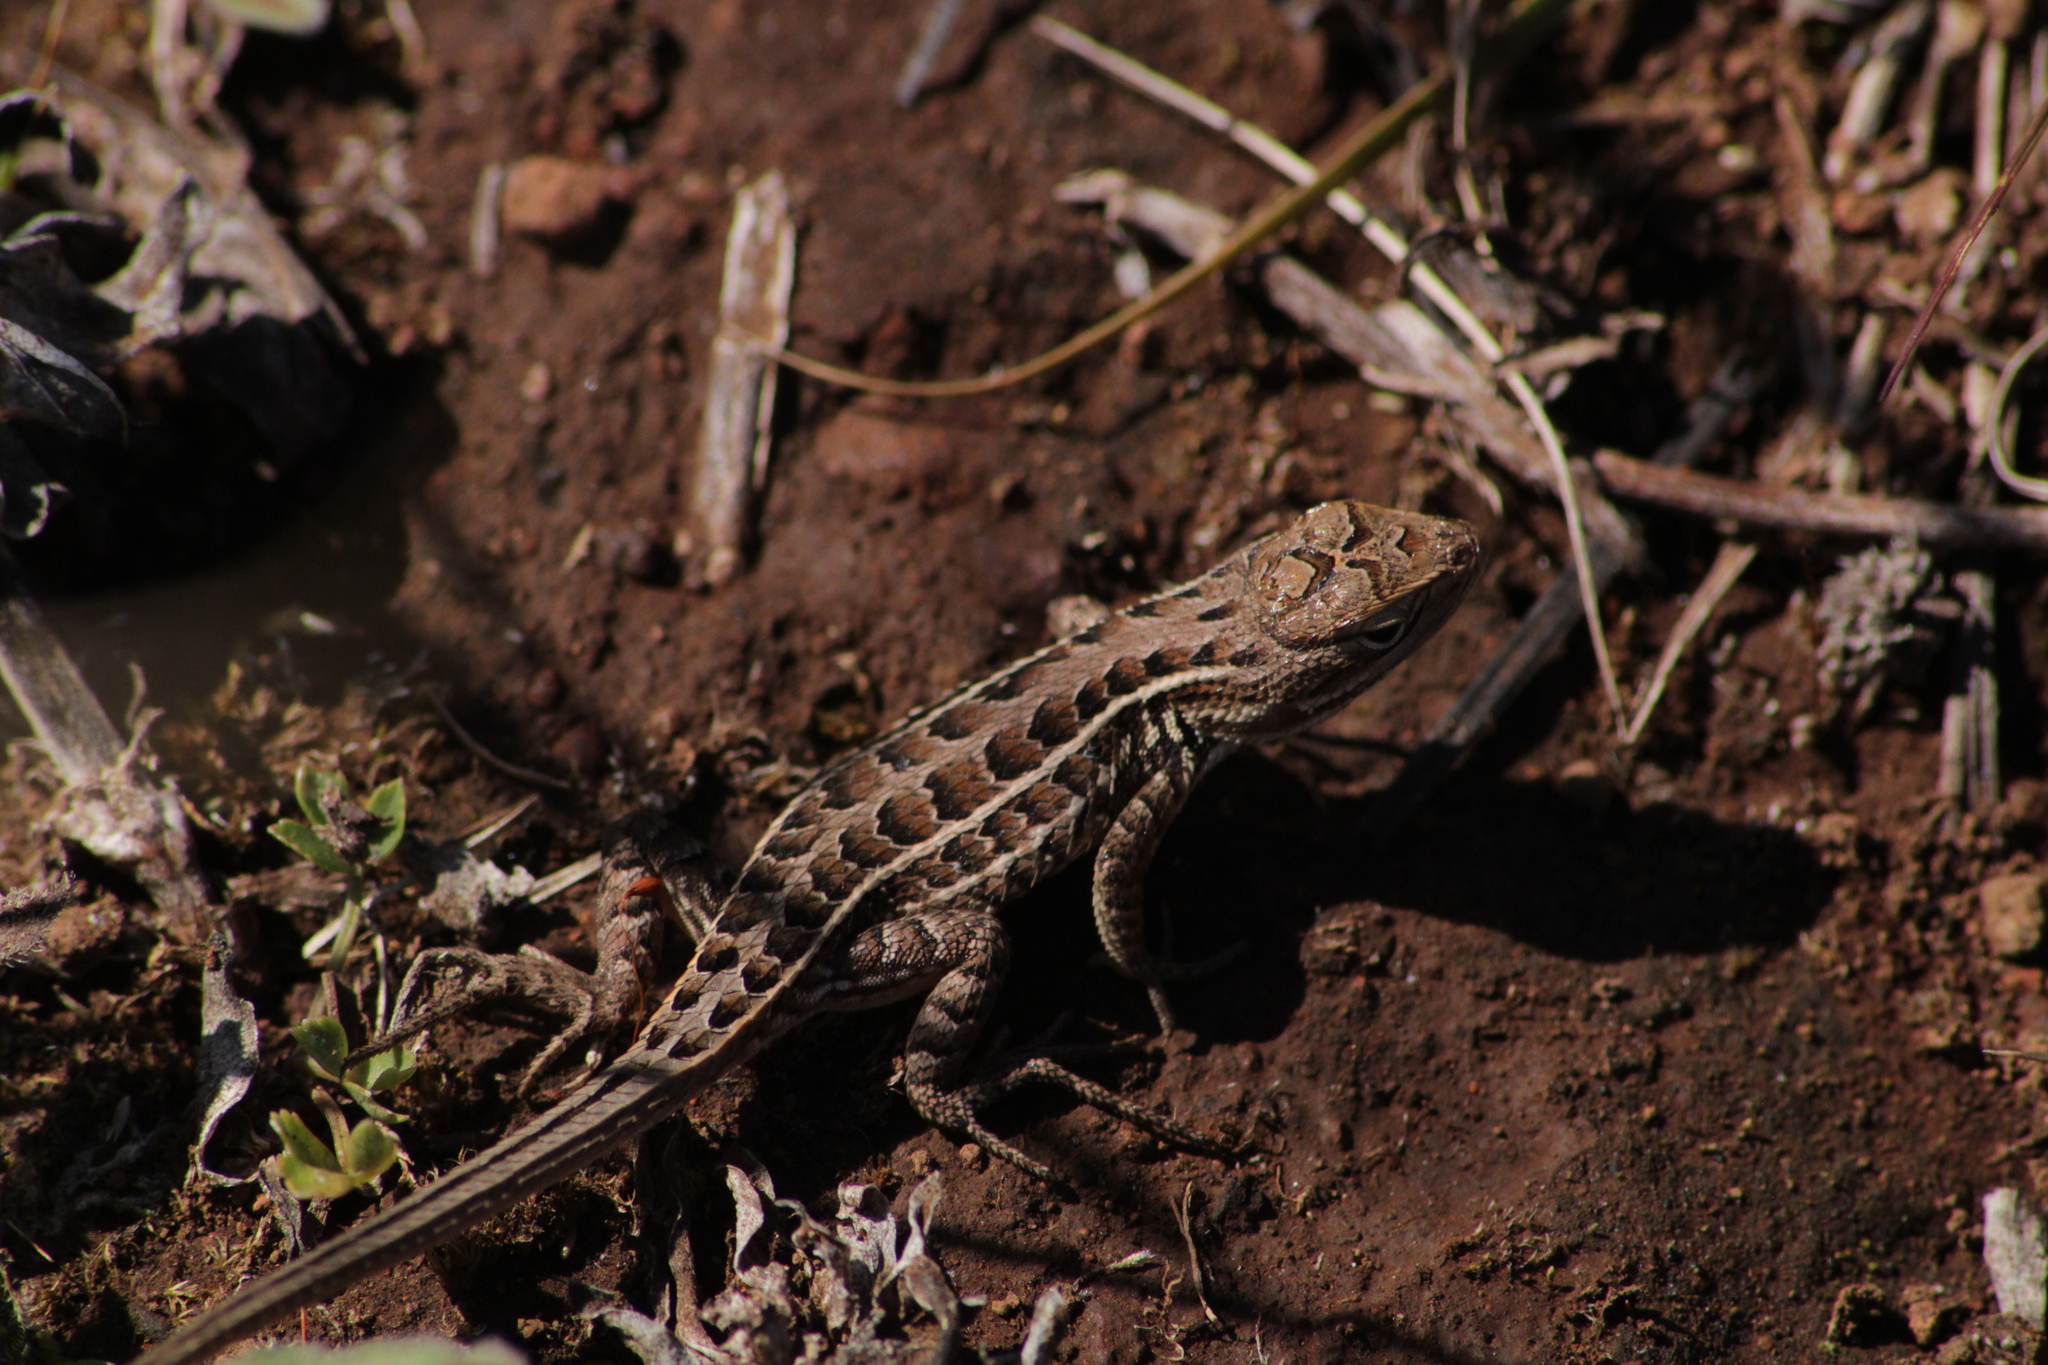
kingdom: Animalia
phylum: Chordata
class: Squamata
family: Phrynosomatidae
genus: Sceloporus
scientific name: Sceloporus scalaris
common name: Brown’s bunchgrass lizard [brownorum]
